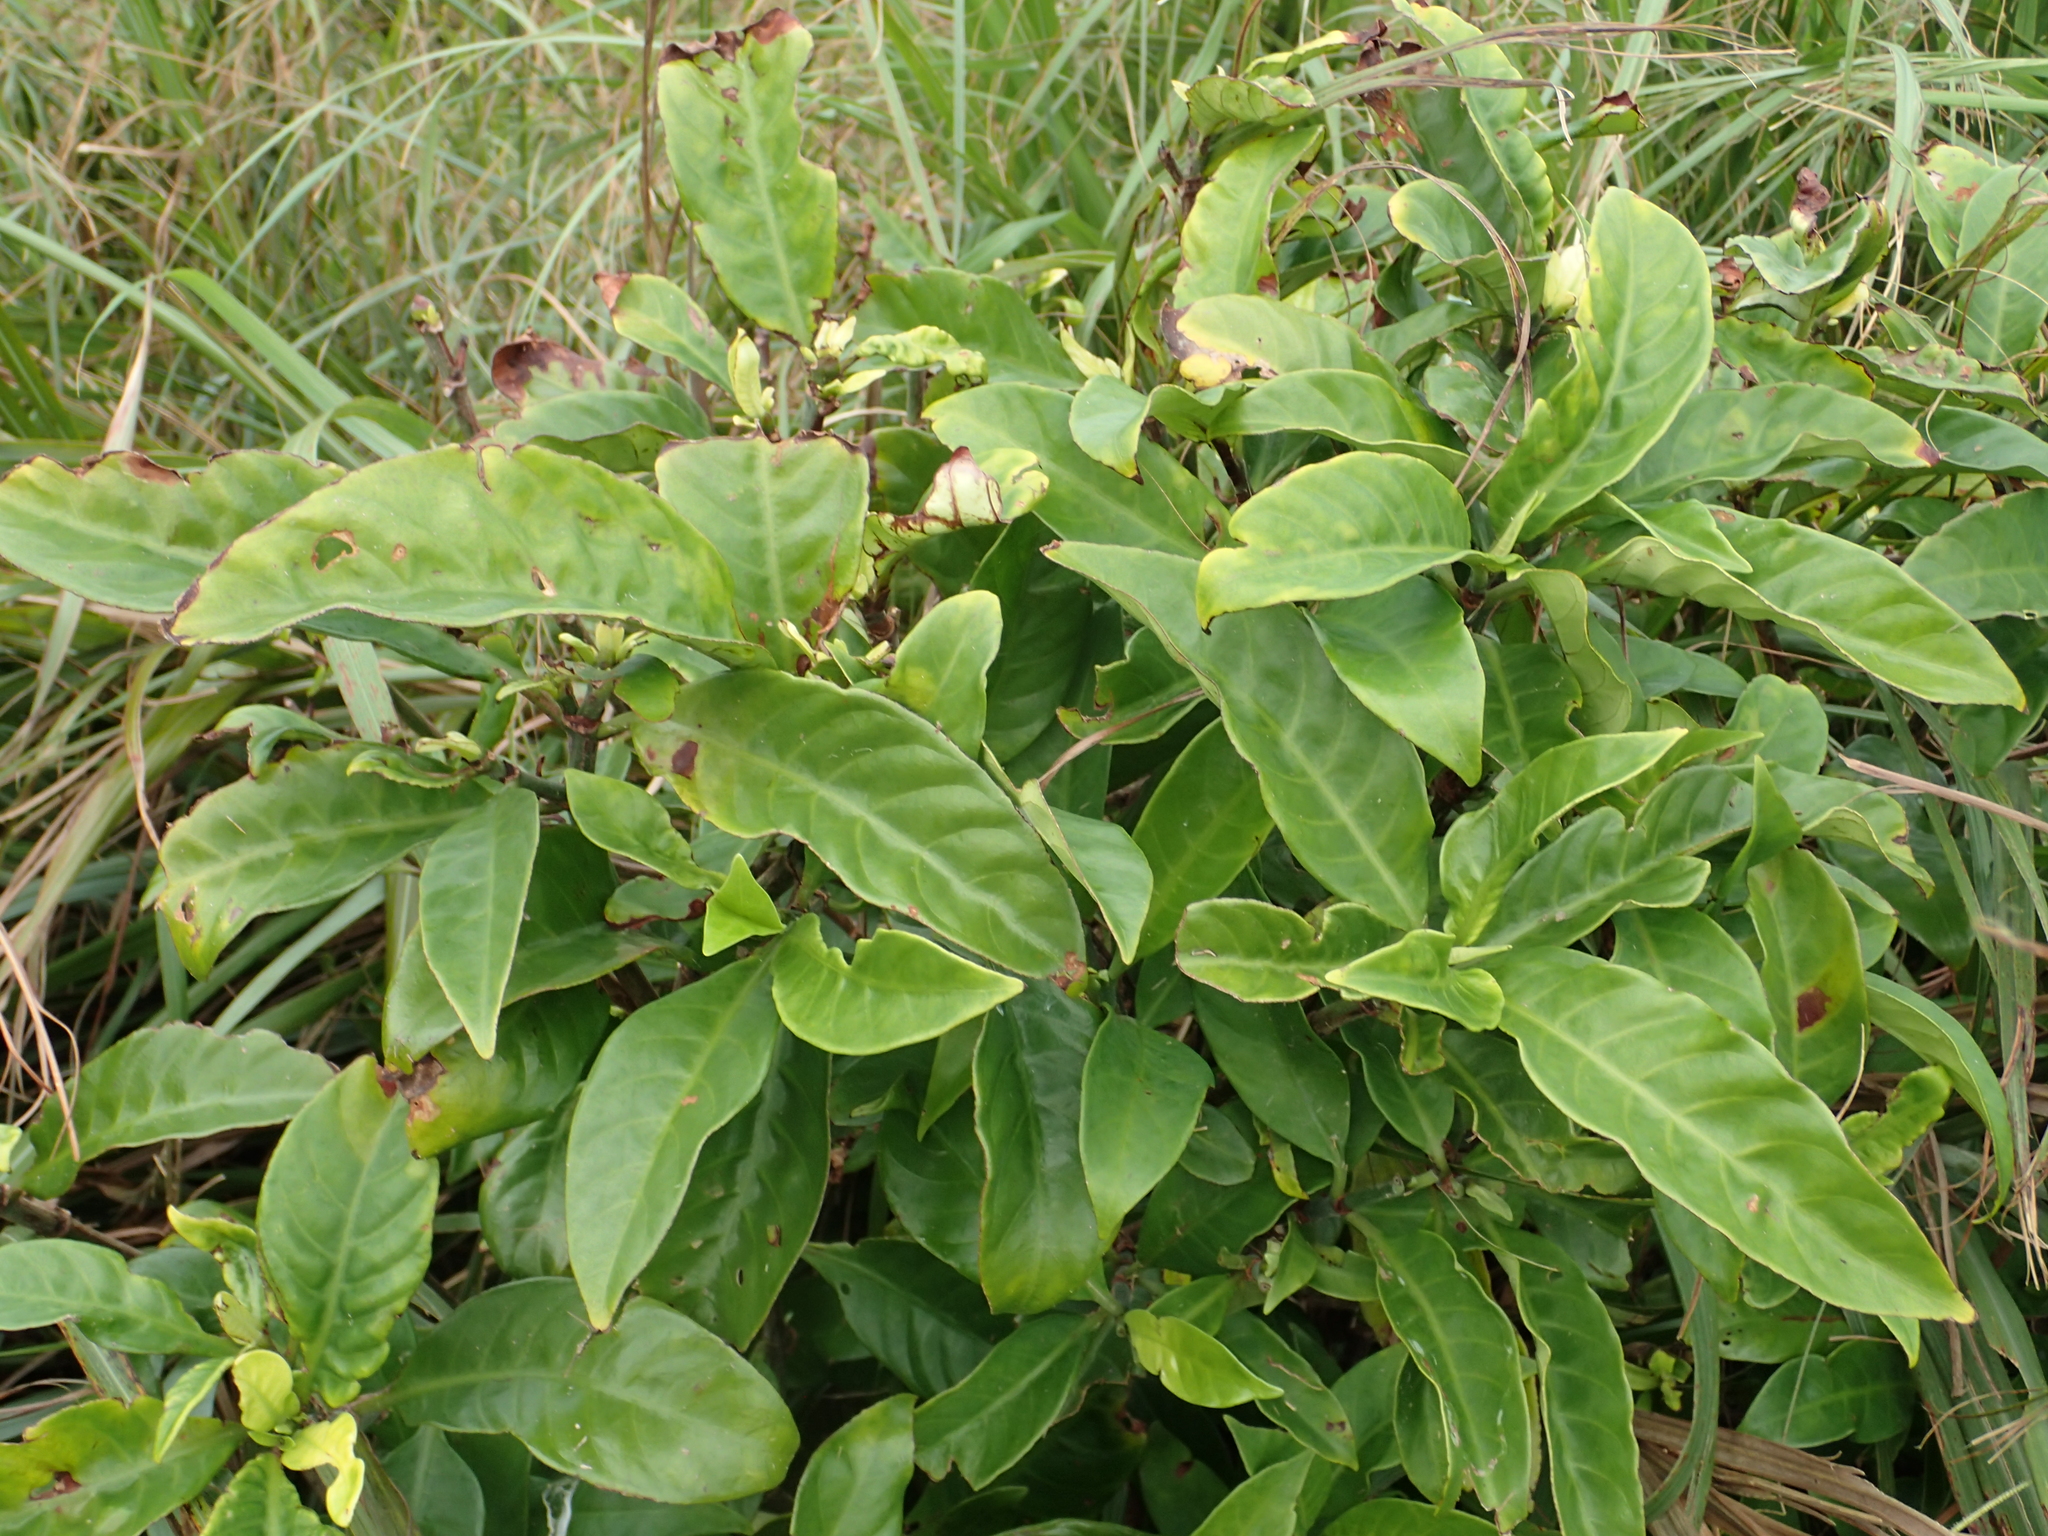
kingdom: Plantae
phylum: Tracheophyta
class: Magnoliopsida
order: Gentianales
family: Rubiaceae
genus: Psychotria
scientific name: Psychotria asiatica
